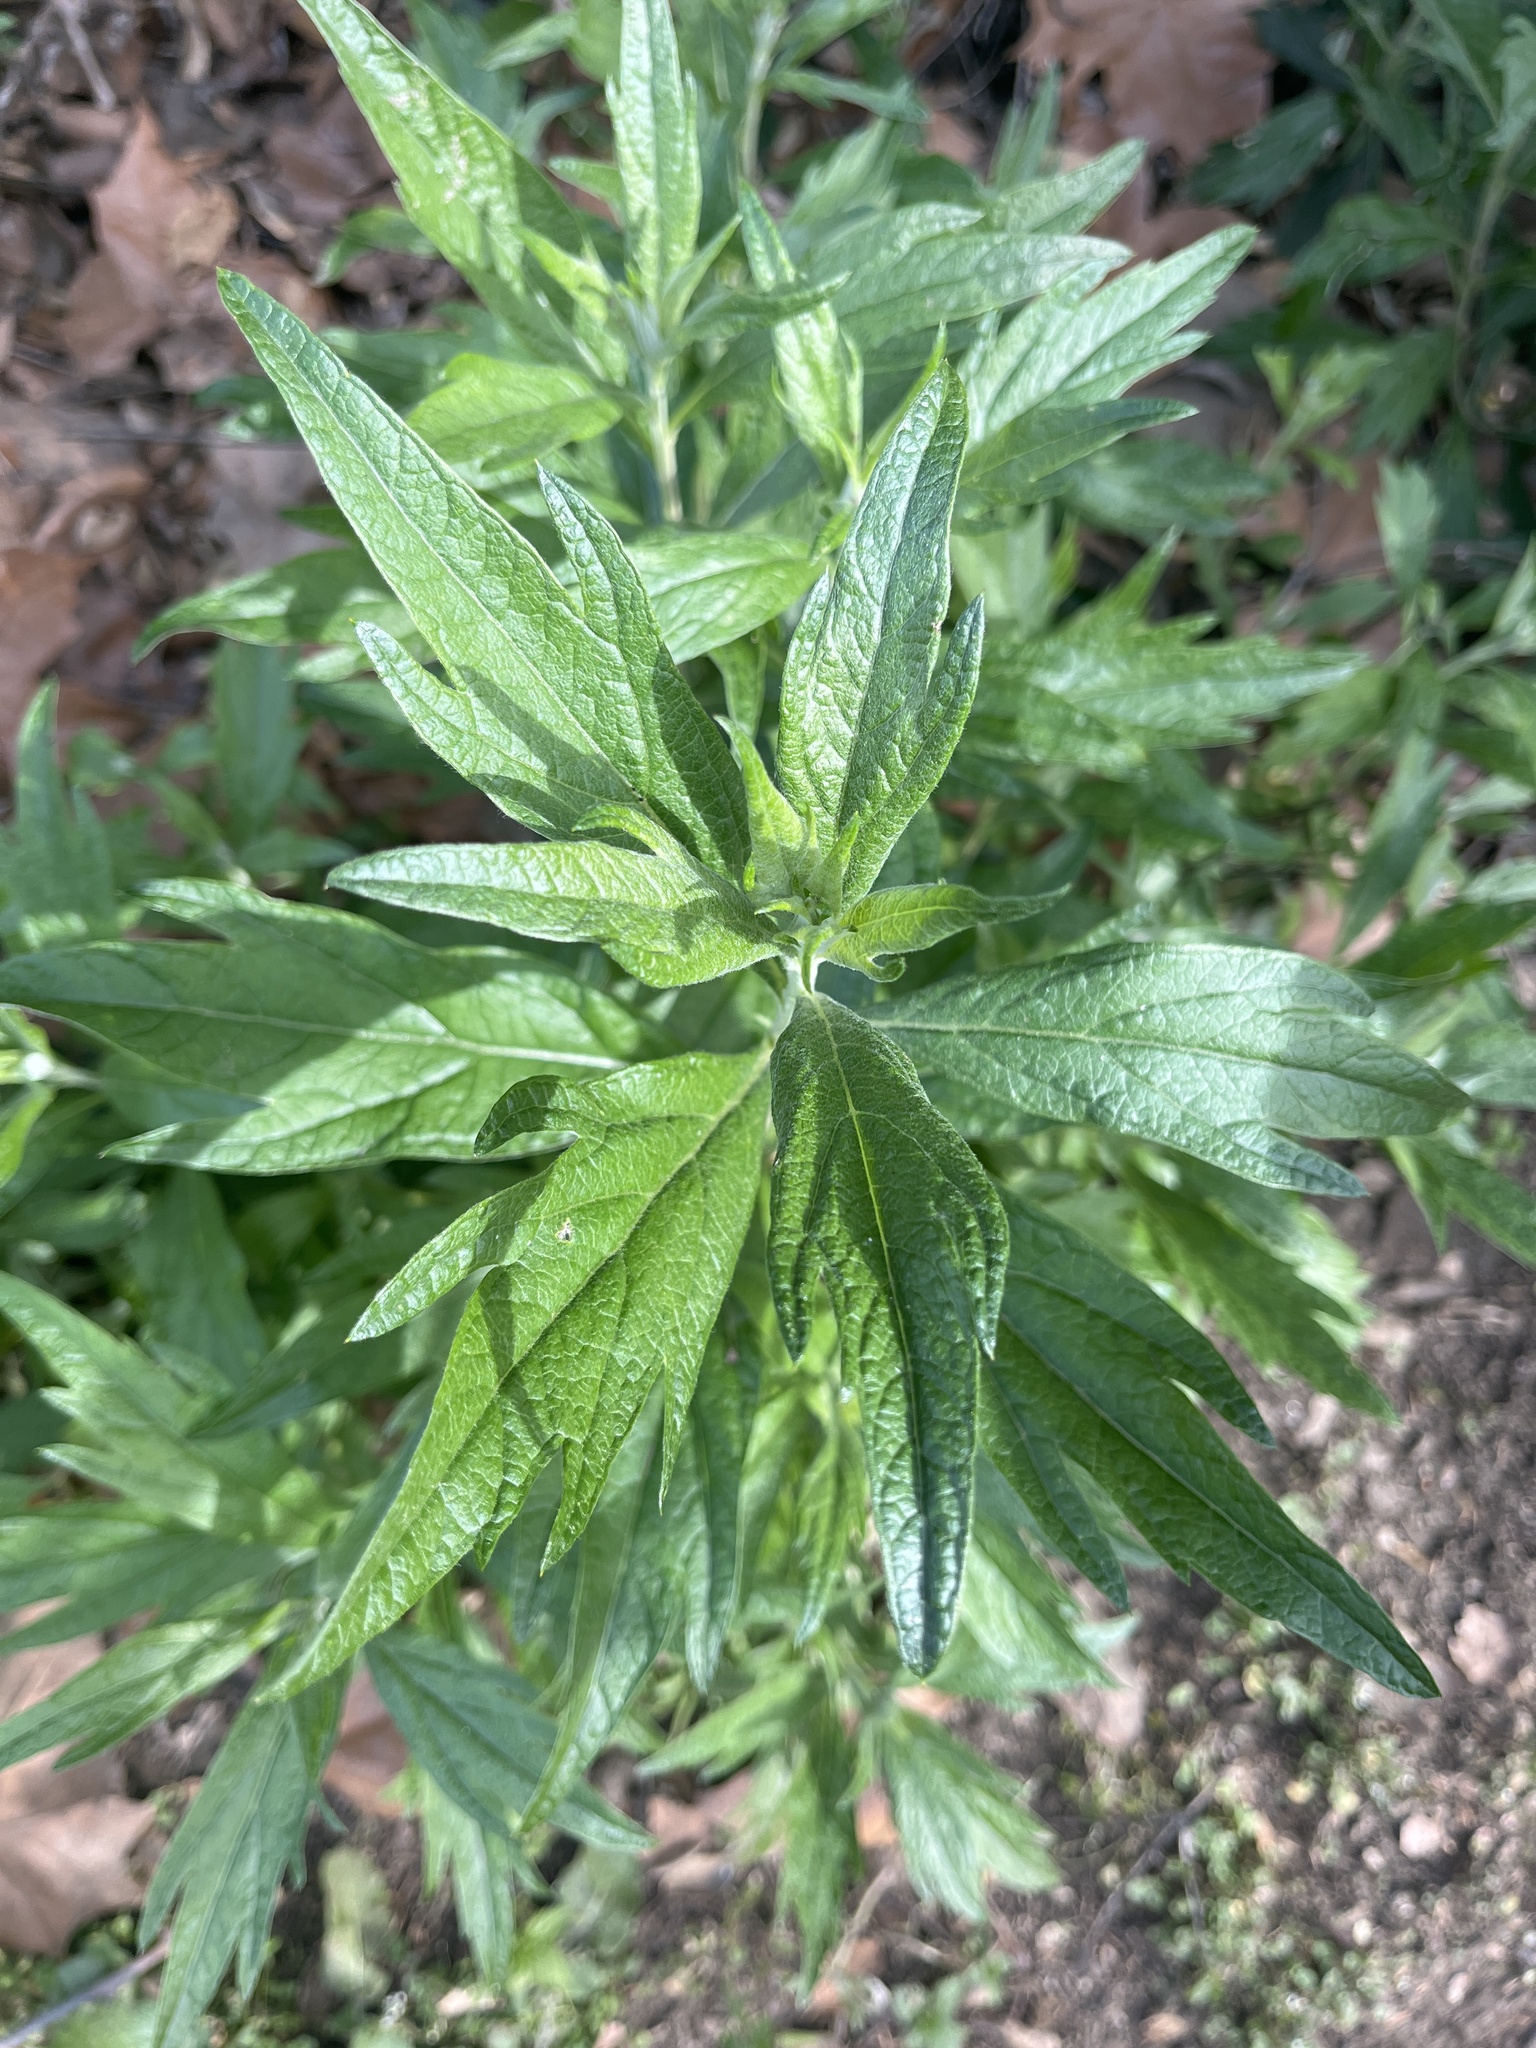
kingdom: Plantae
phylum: Tracheophyta
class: Magnoliopsida
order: Asterales
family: Asteraceae
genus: Artemisia
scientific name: Artemisia douglasiana
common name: Northwest mugwort
